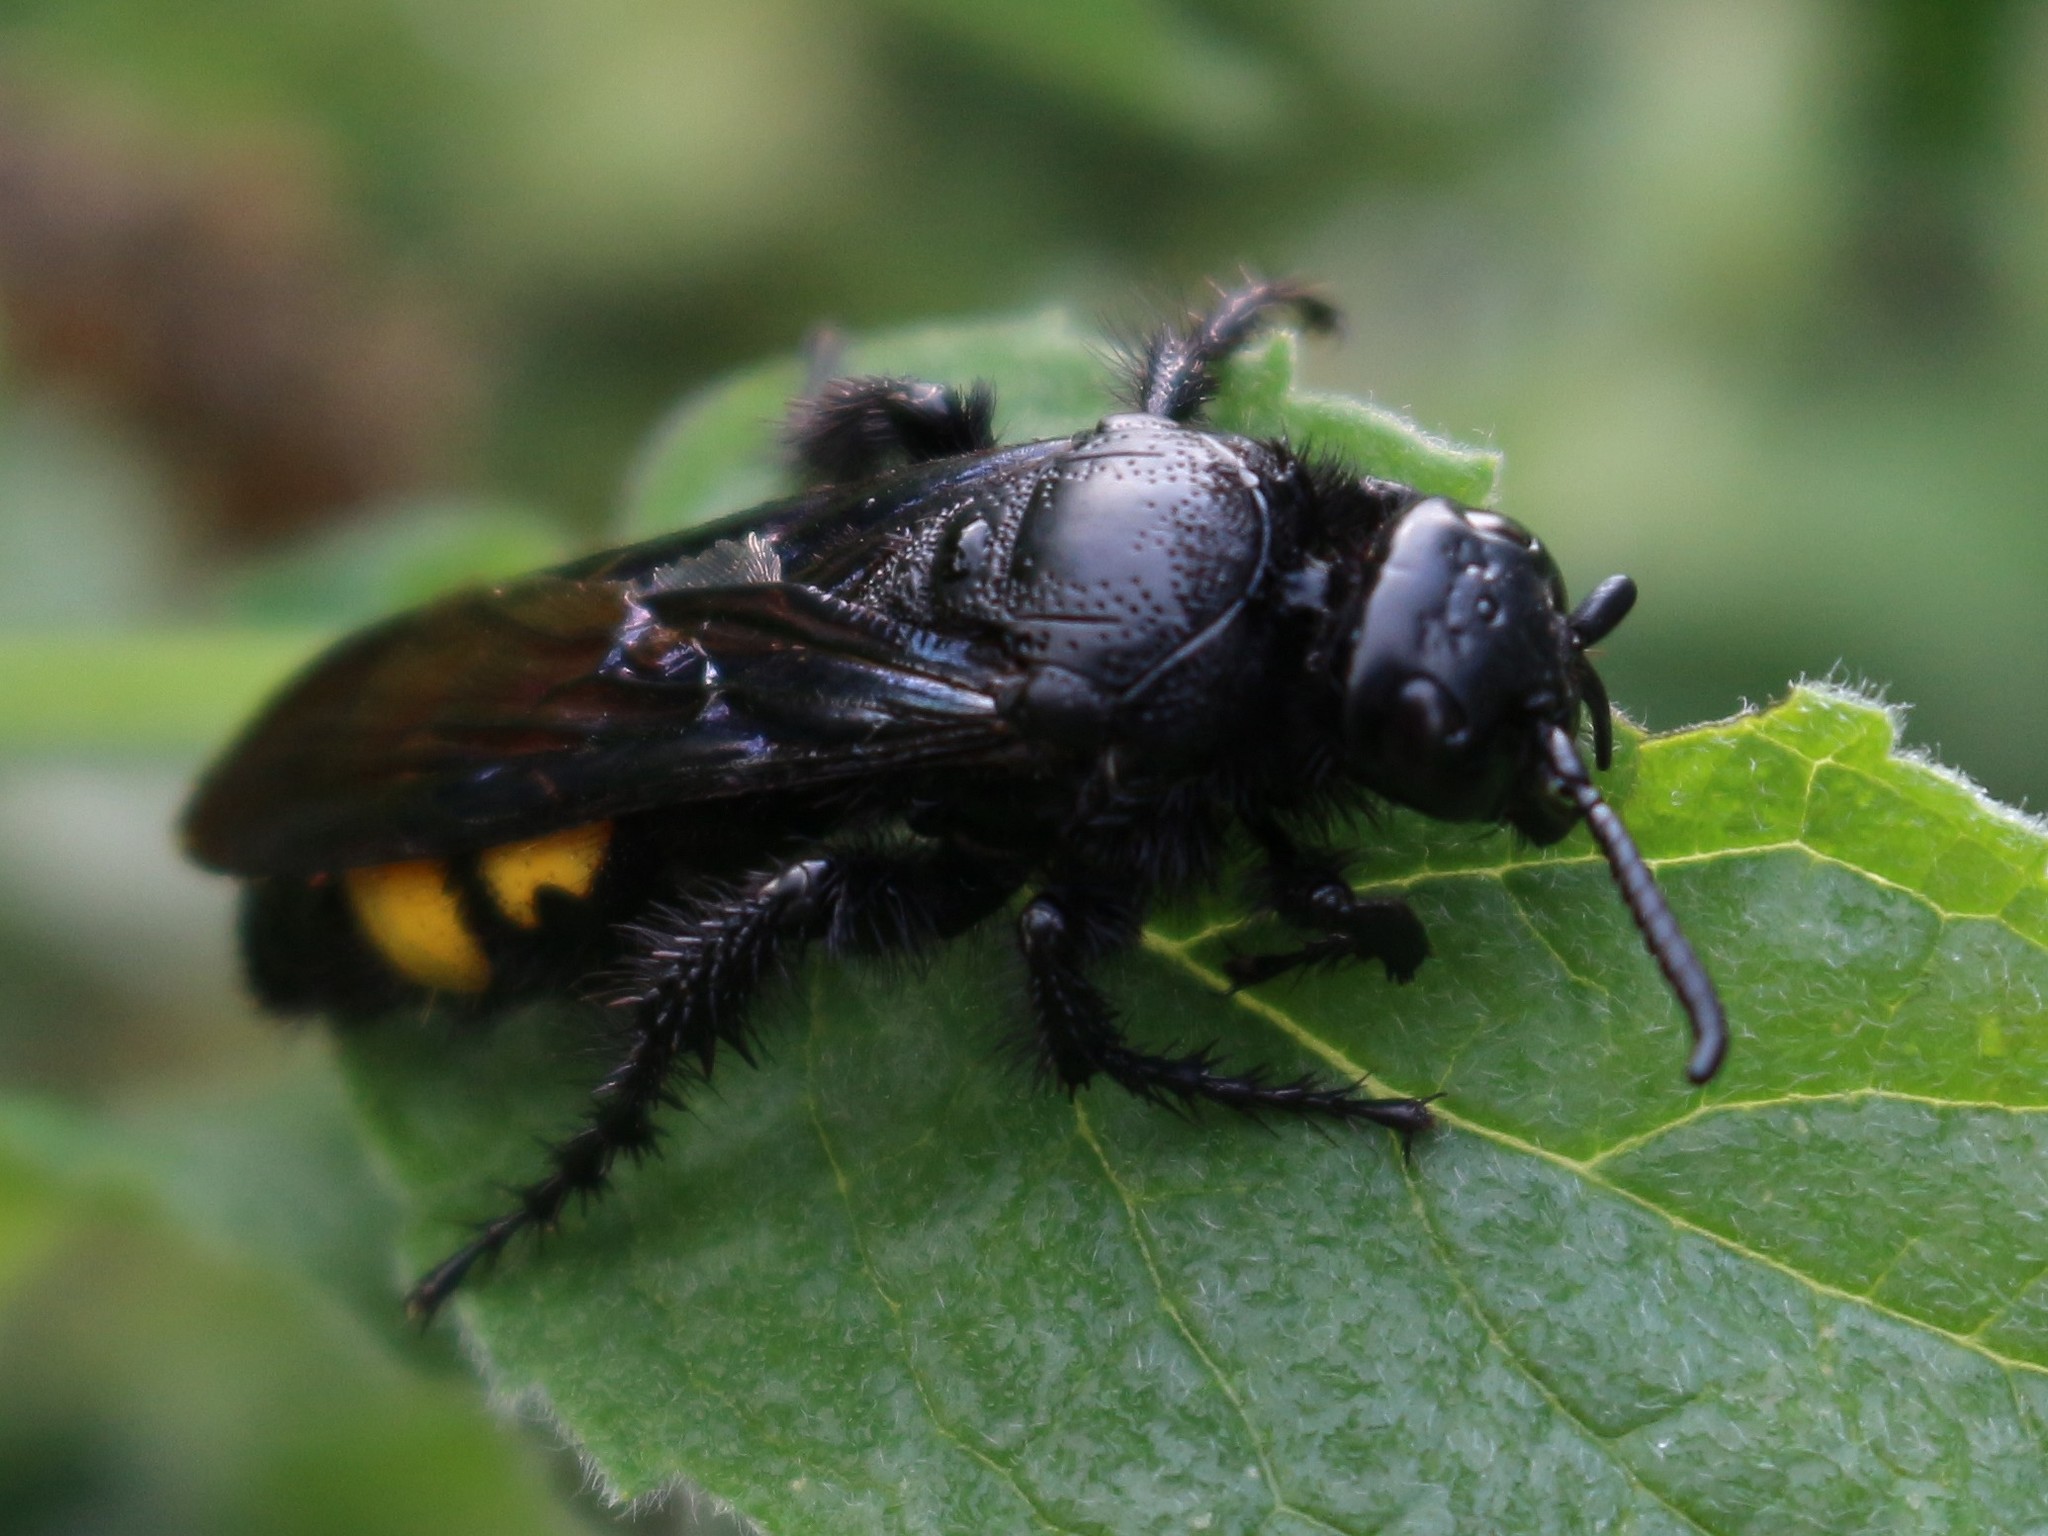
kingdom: Animalia
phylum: Arthropoda
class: Insecta
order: Hymenoptera
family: Scoliidae
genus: Scolia
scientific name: Scolia hirta
